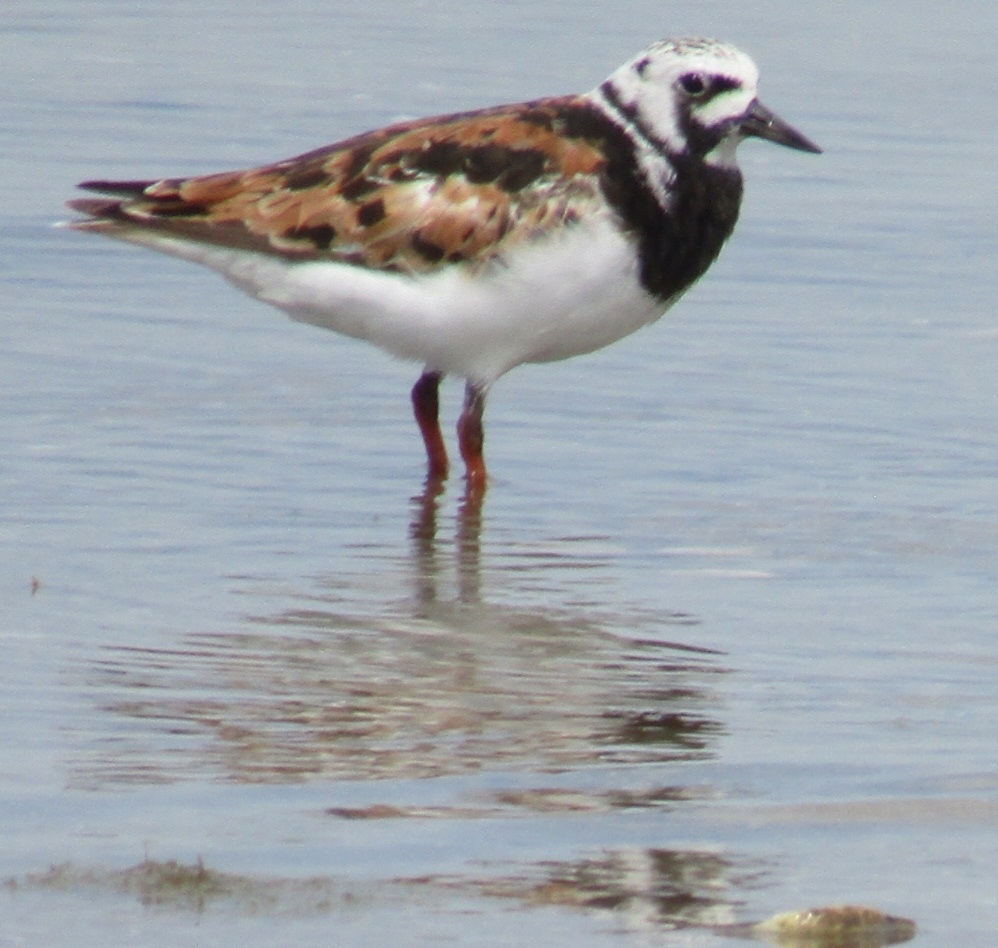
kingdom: Animalia
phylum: Chordata
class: Aves
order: Charadriiformes
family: Scolopacidae
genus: Arenaria
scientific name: Arenaria interpres
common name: Ruddy turnstone
